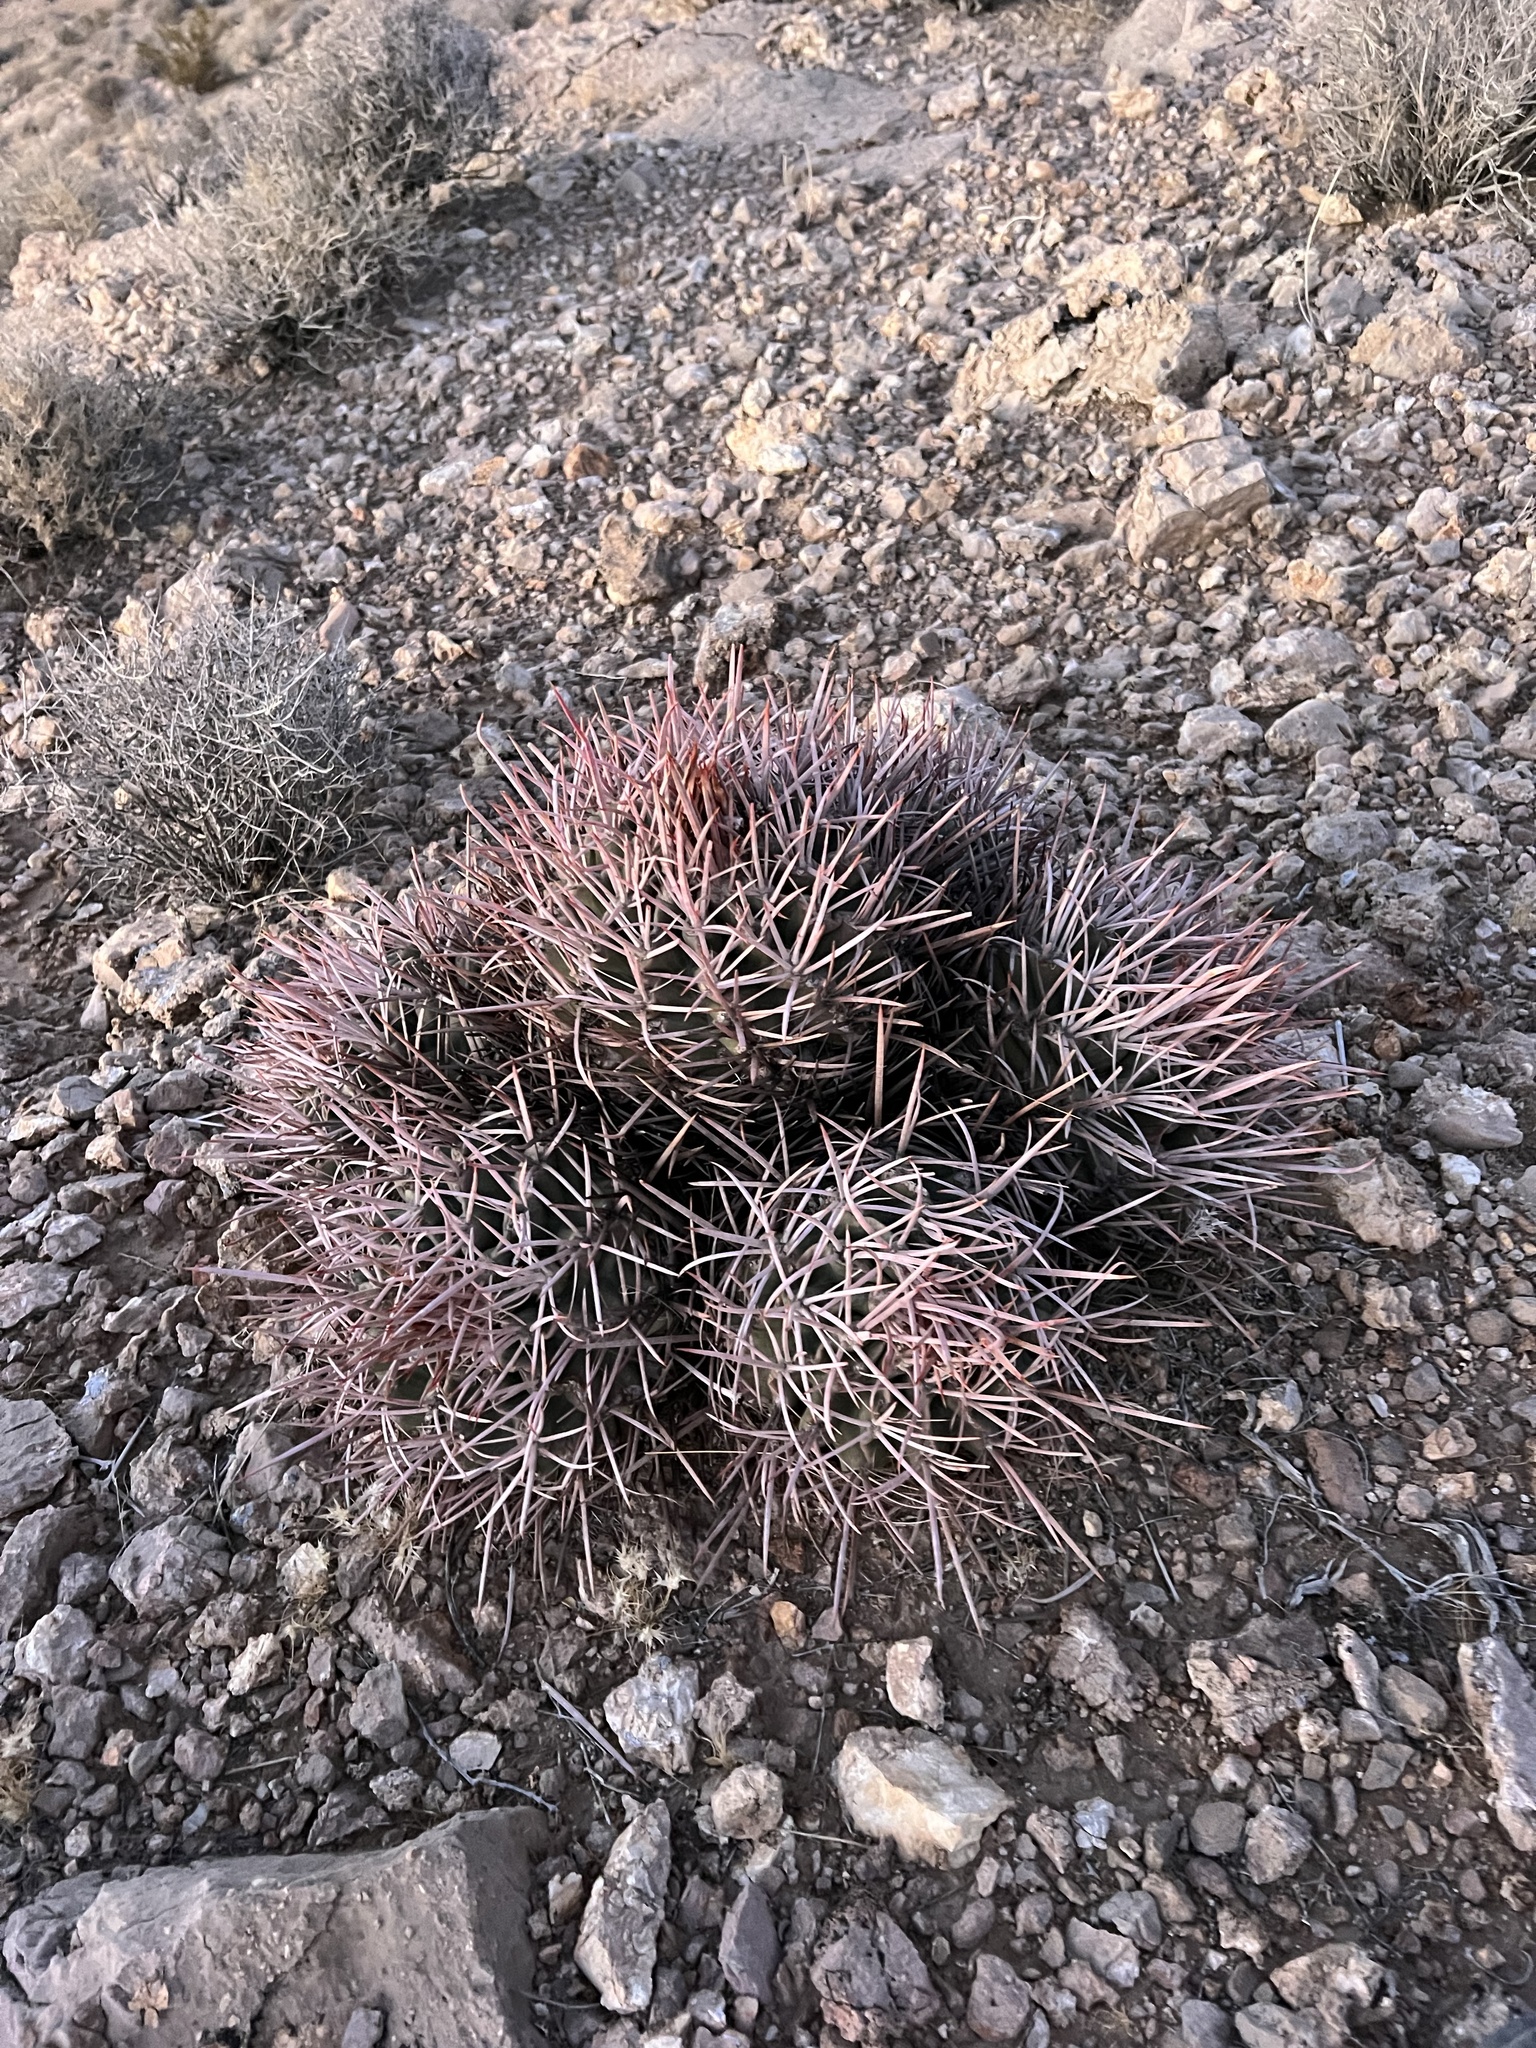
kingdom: Plantae
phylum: Tracheophyta
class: Magnoliopsida
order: Caryophyllales
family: Cactaceae
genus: Echinocactus
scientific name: Echinocactus polycephalus
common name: Cottontop cactus
